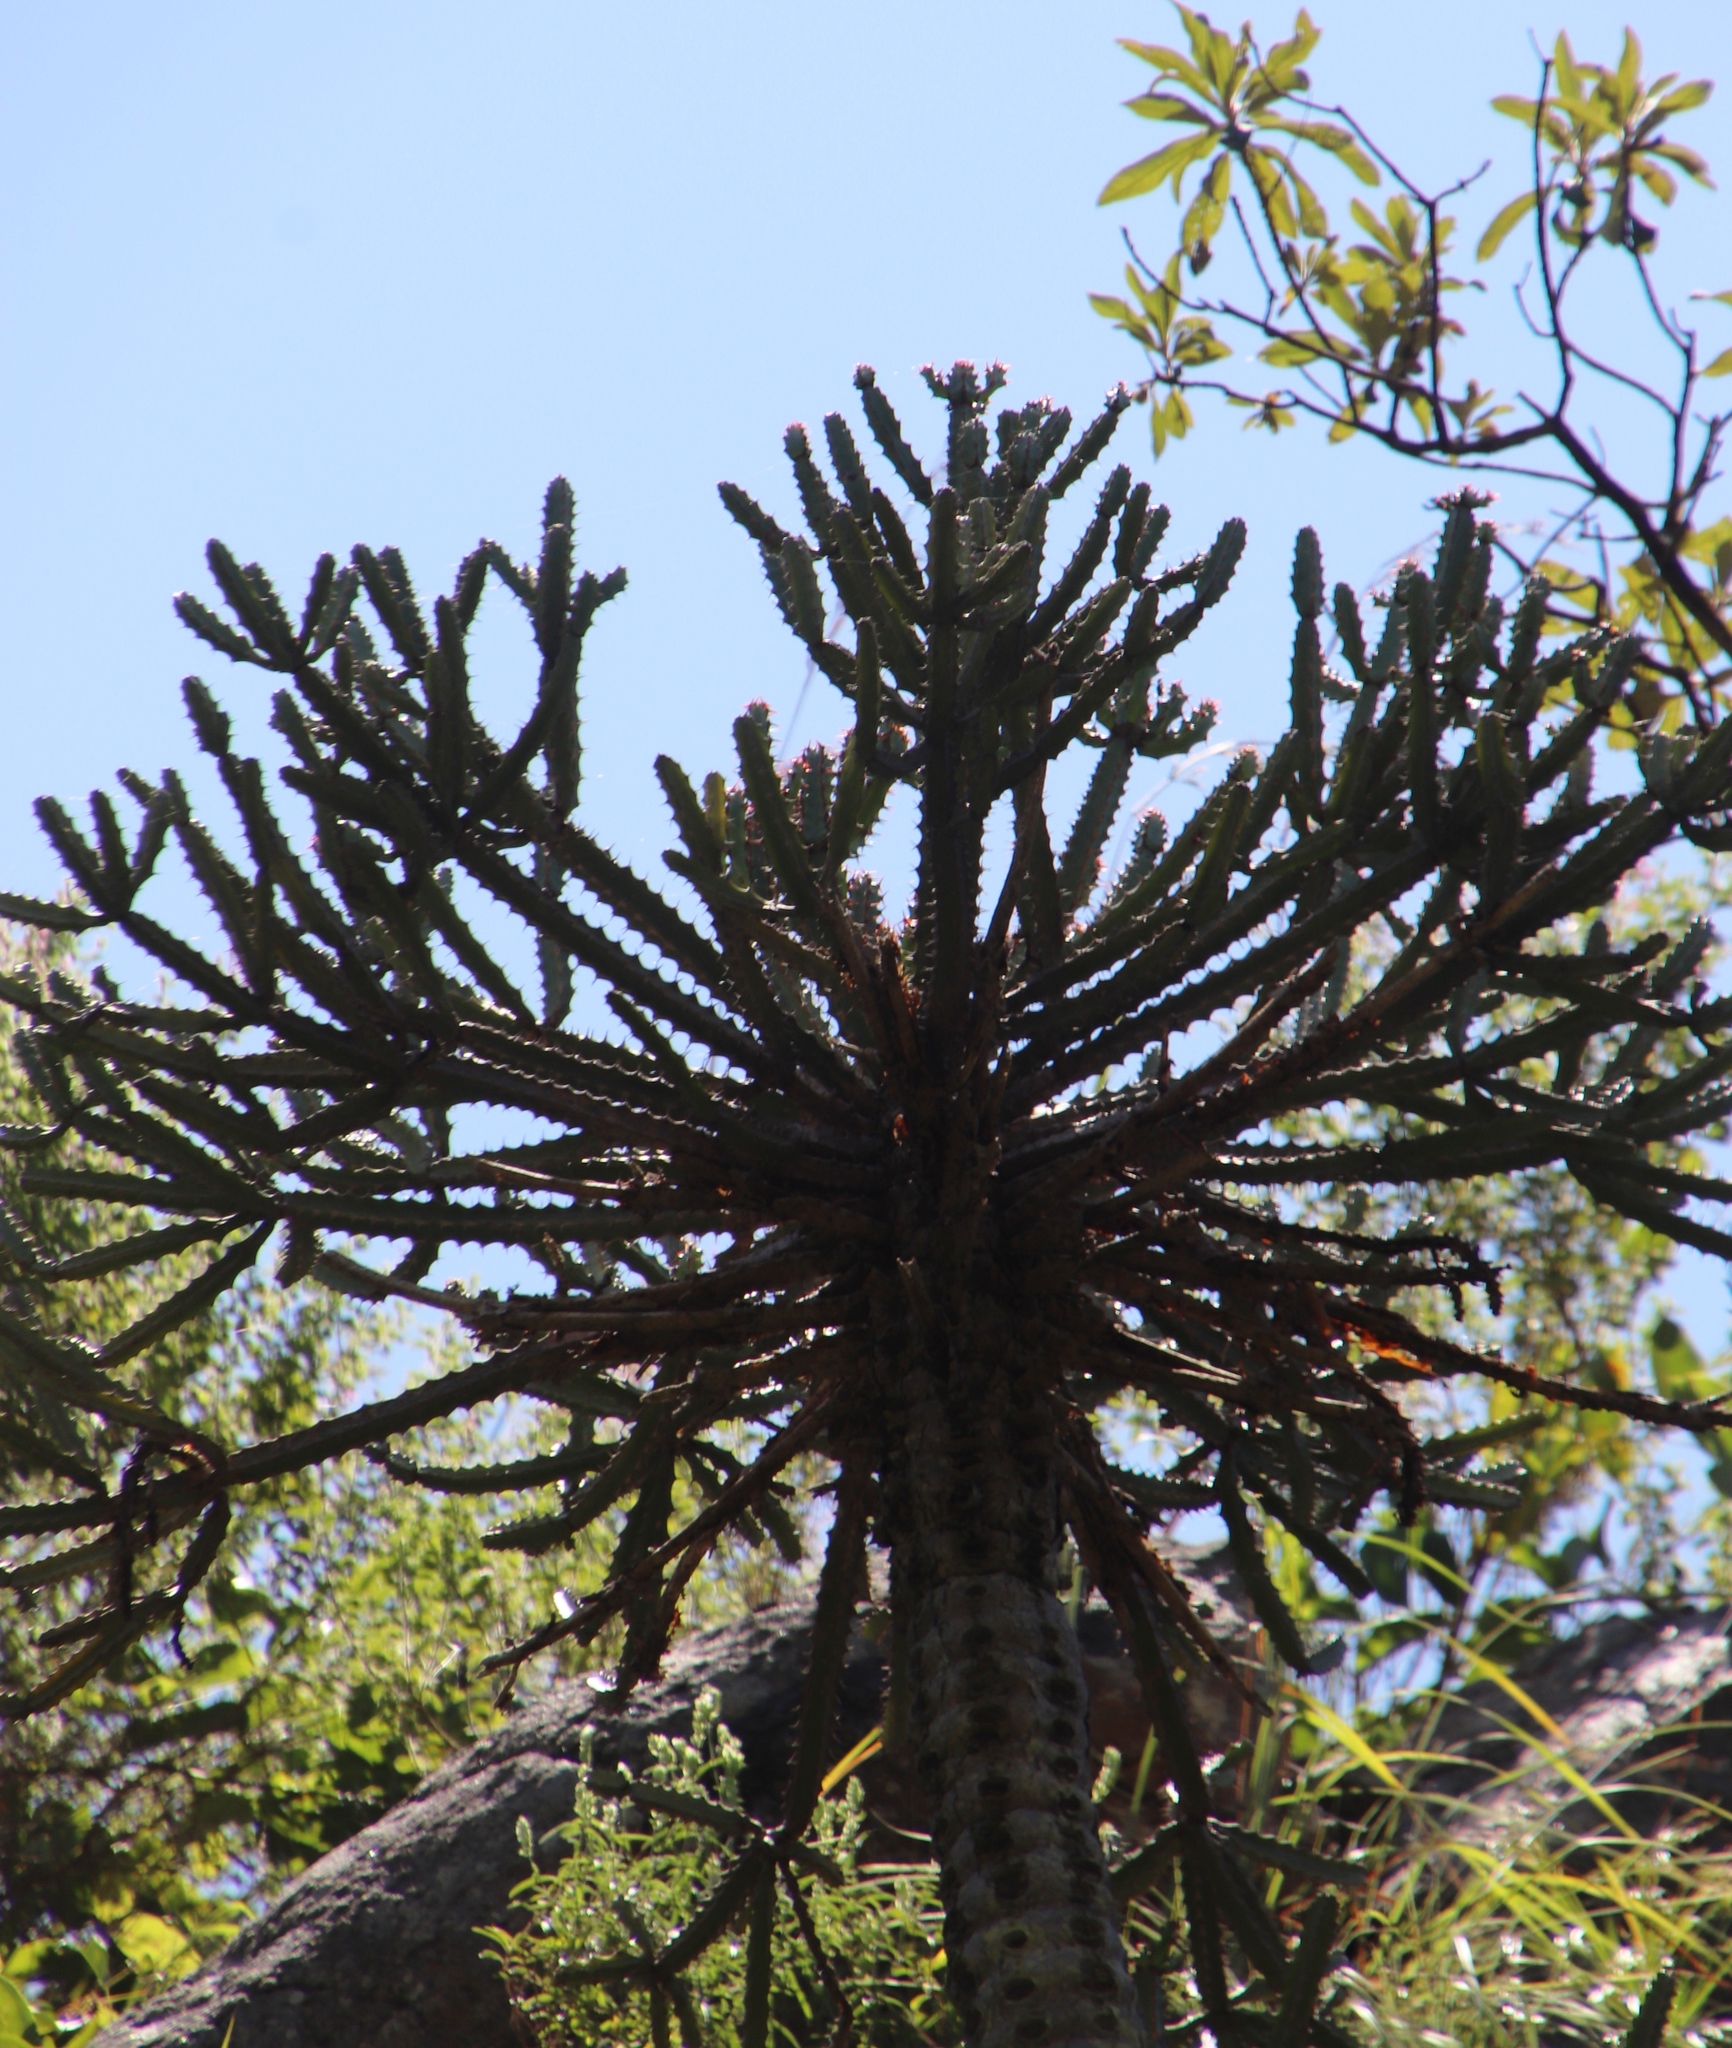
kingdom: Plantae
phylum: Tracheophyta
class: Magnoliopsida
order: Malpighiales
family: Euphorbiaceae
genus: Euphorbia
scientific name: Euphorbia grandidens
